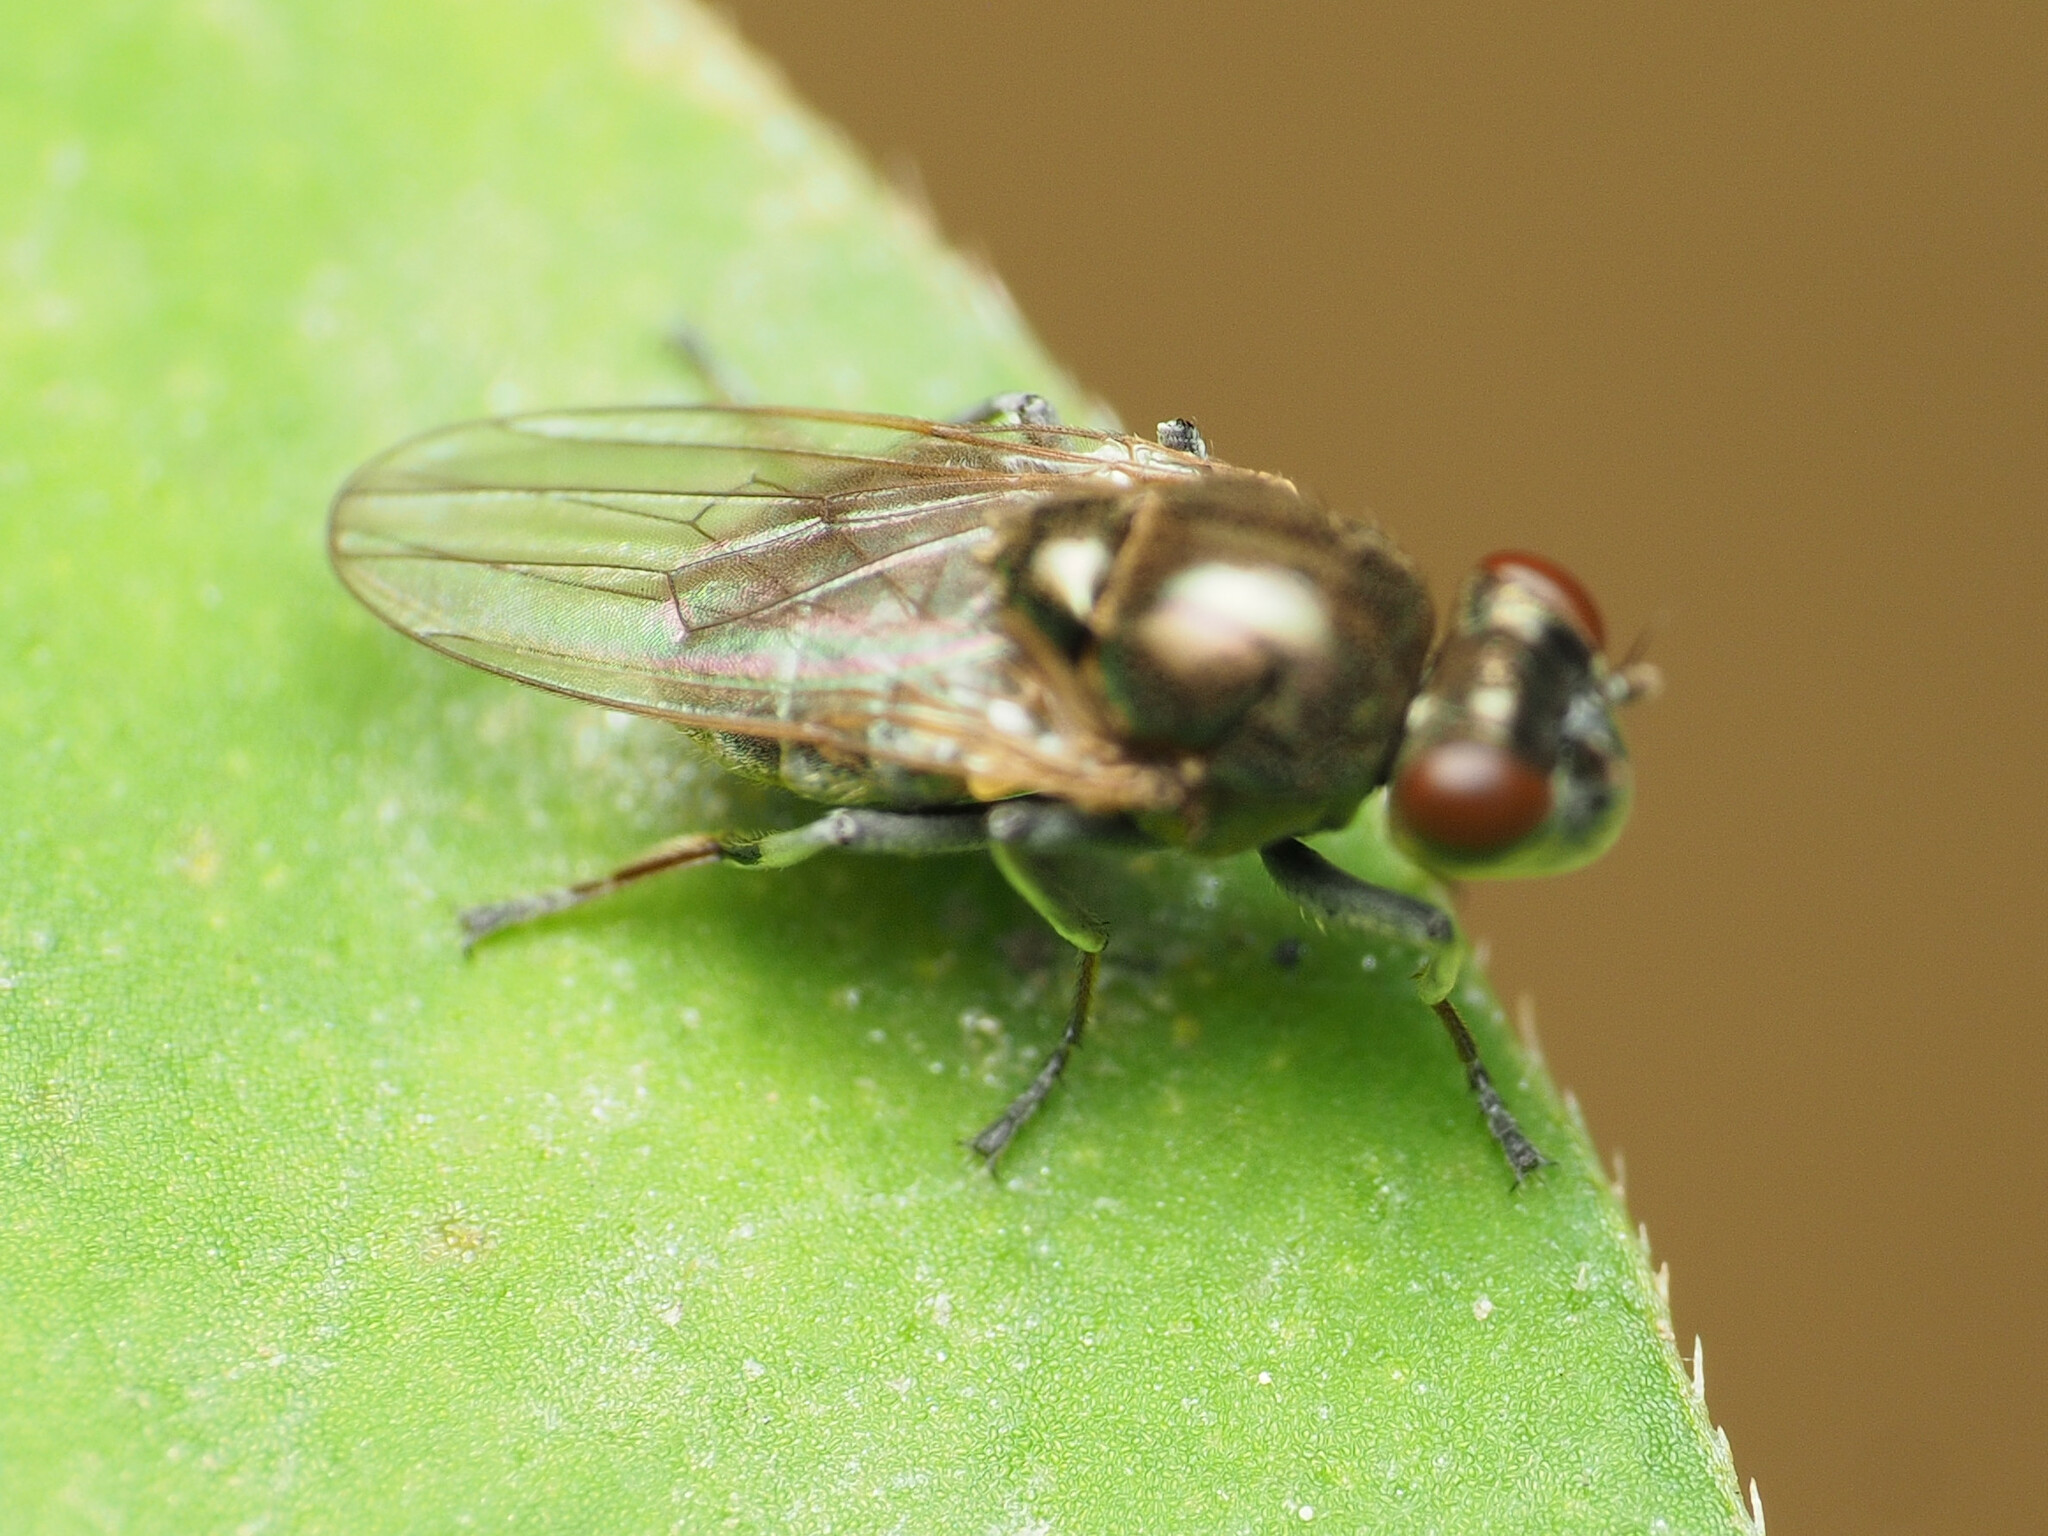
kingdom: Animalia
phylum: Arthropoda
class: Insecta
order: Diptera
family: Ephydridae
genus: Parydra
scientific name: Parydra quadrituberculata
